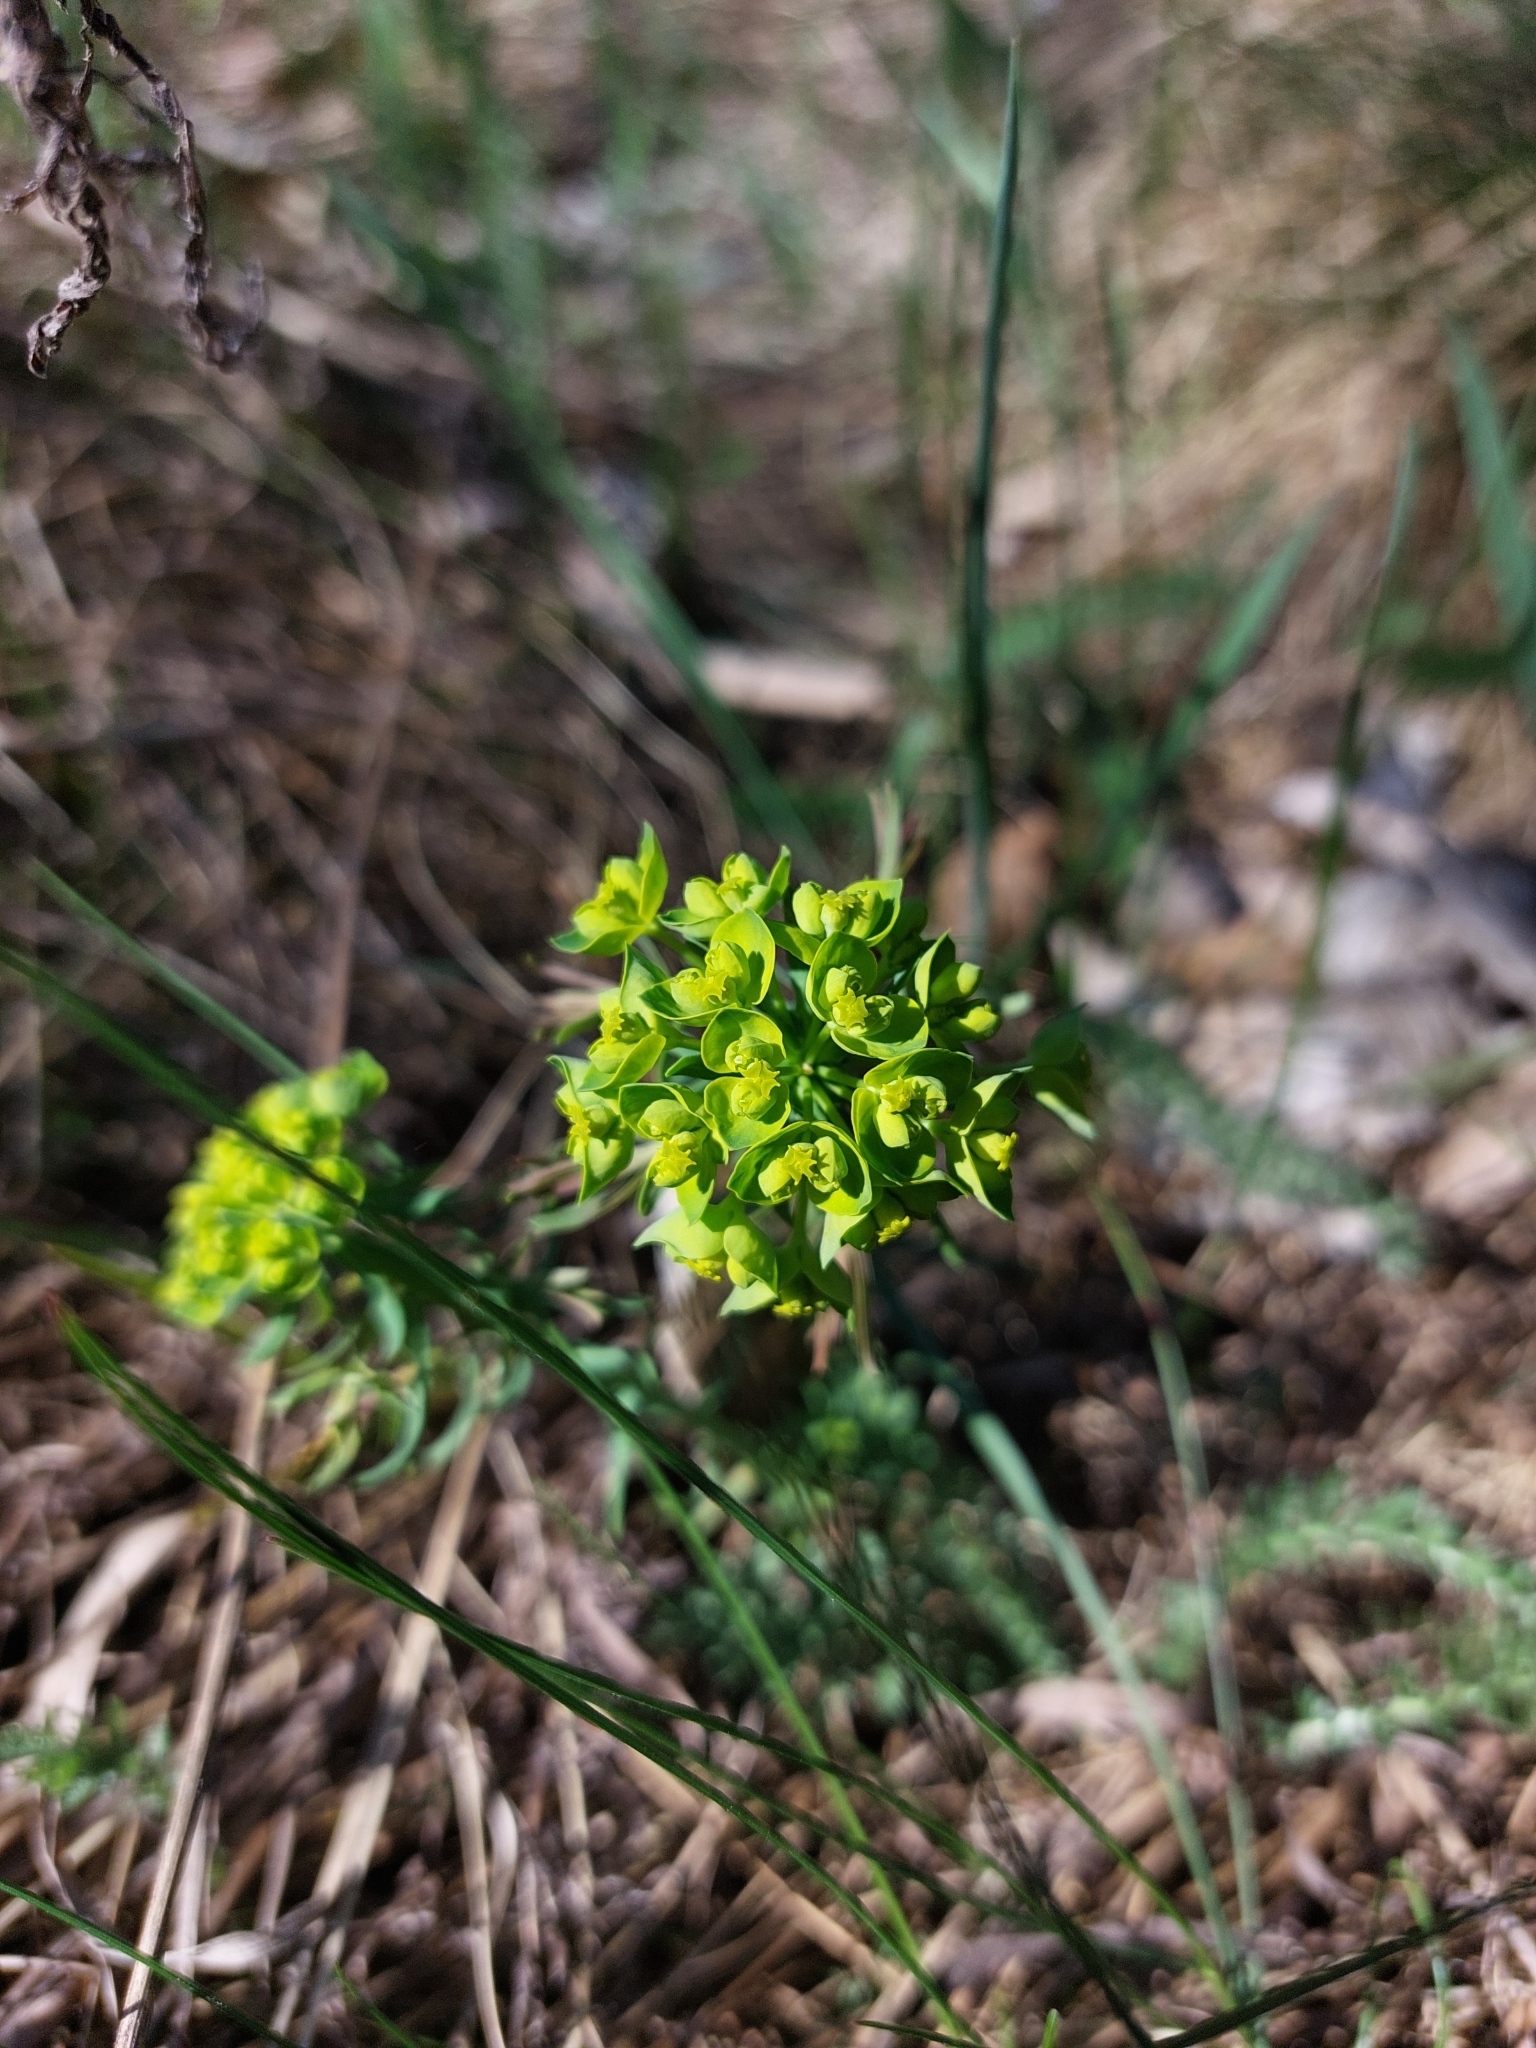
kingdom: Plantae
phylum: Tracheophyta
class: Magnoliopsida
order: Malpighiales
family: Euphorbiaceae
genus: Euphorbia
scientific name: Euphorbia cyparissias
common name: Cypress spurge
